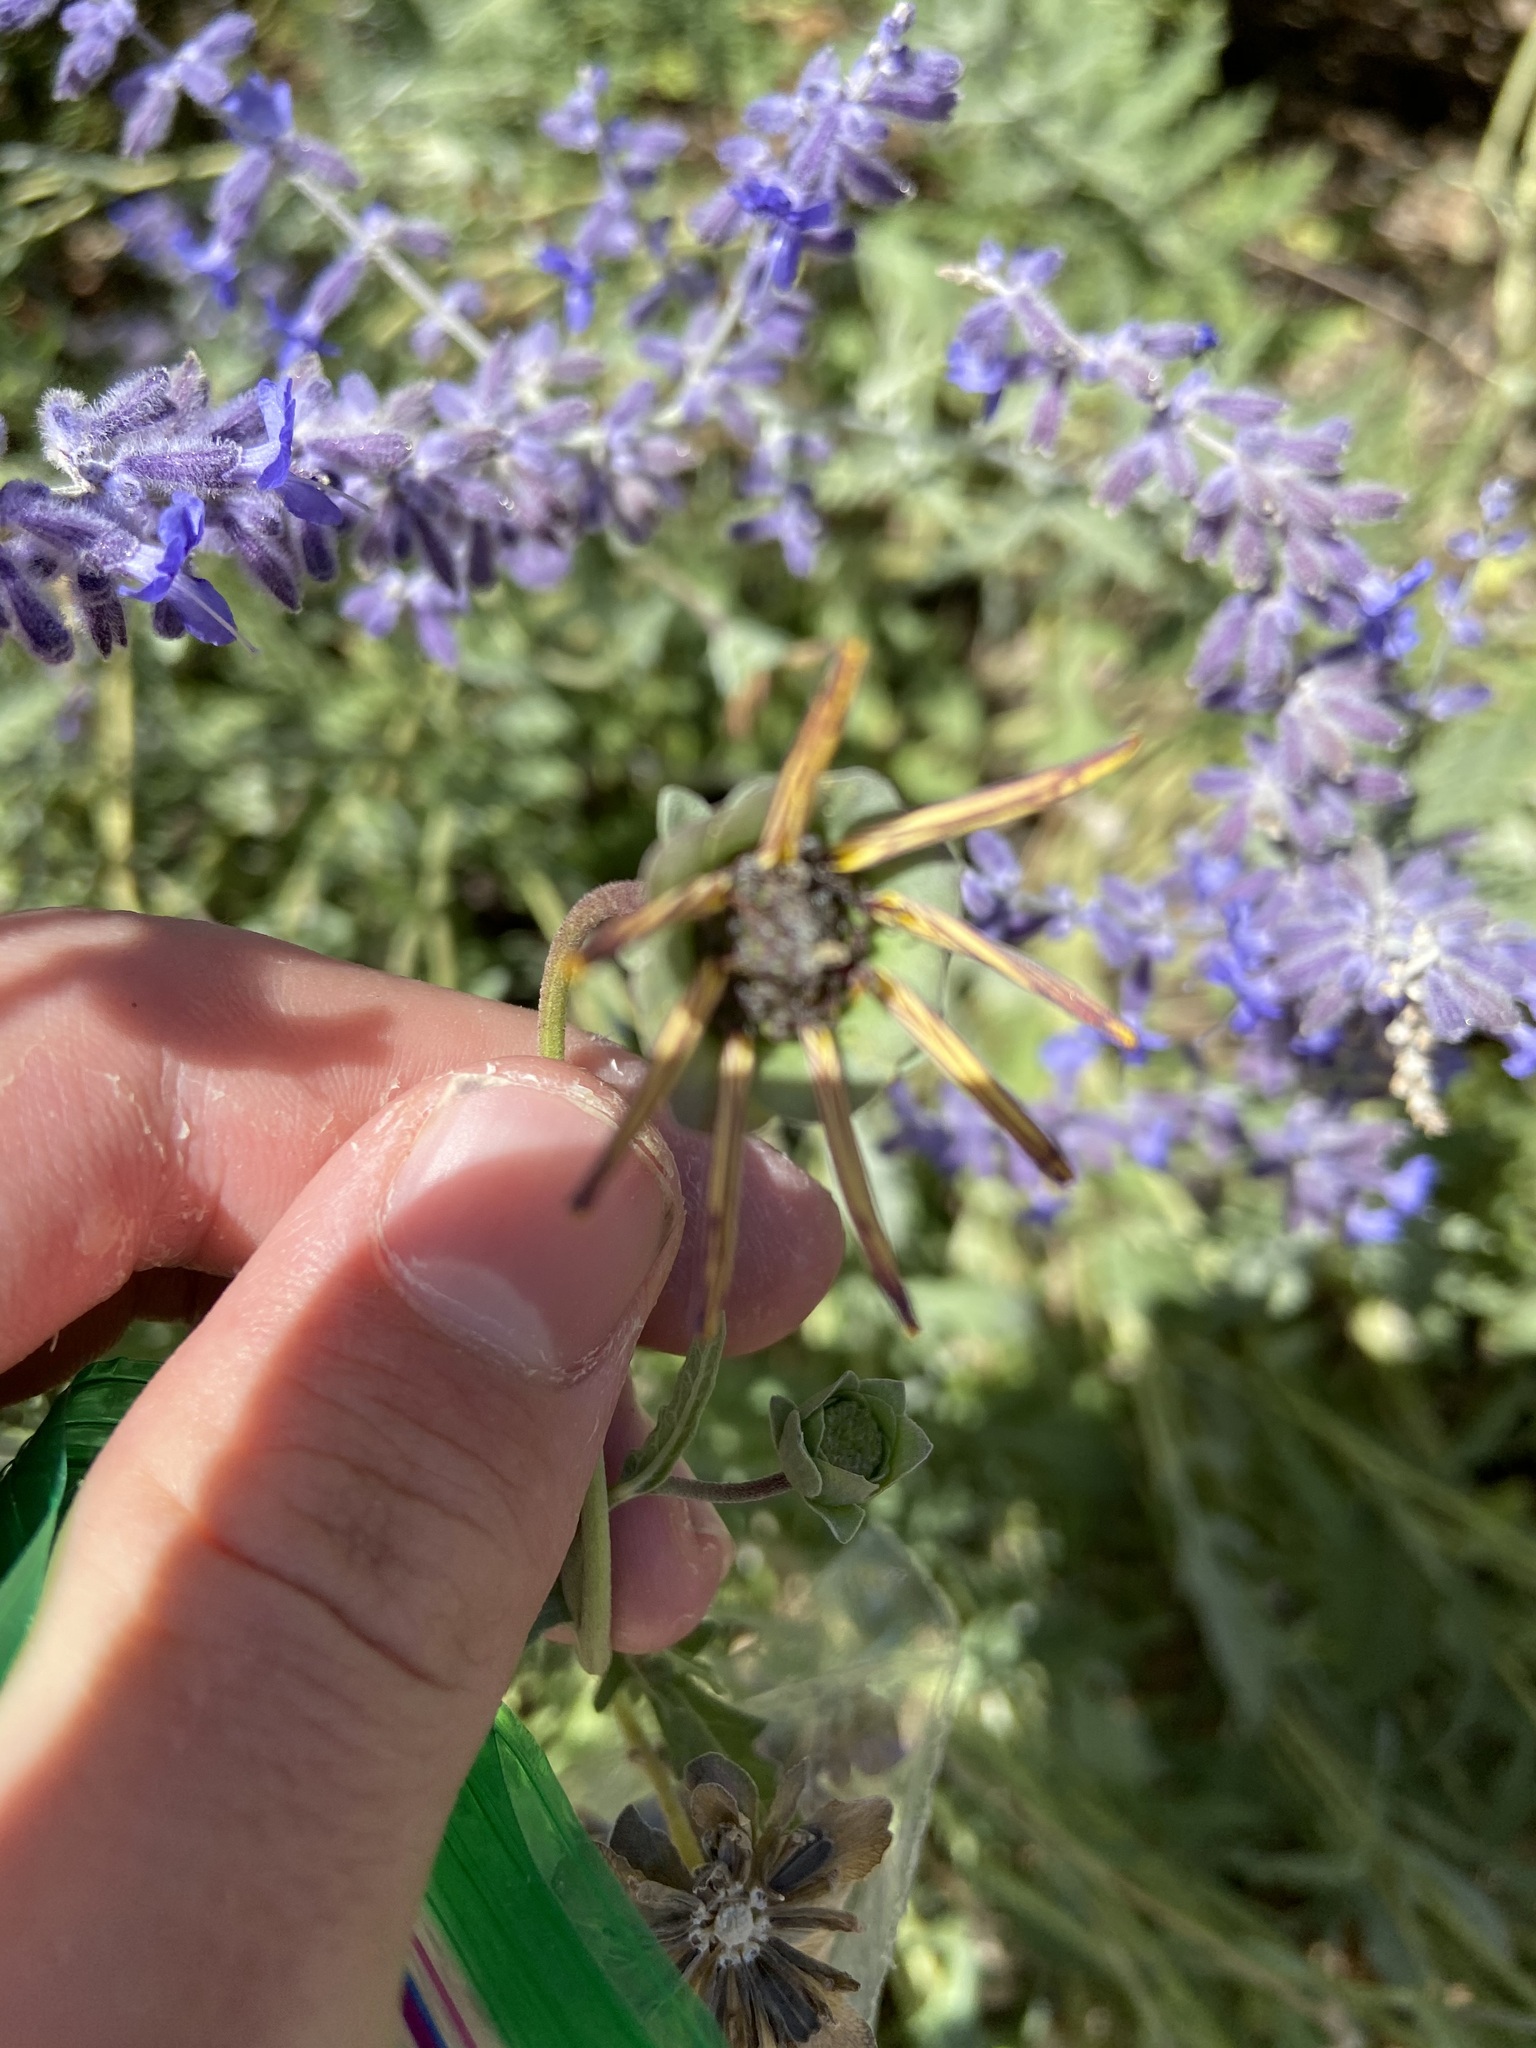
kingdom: Plantae
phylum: Tracheophyta
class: Magnoliopsida
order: Asterales
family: Asteraceae
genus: Berlandiera
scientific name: Berlandiera lyrata
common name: Chocolate-flower
